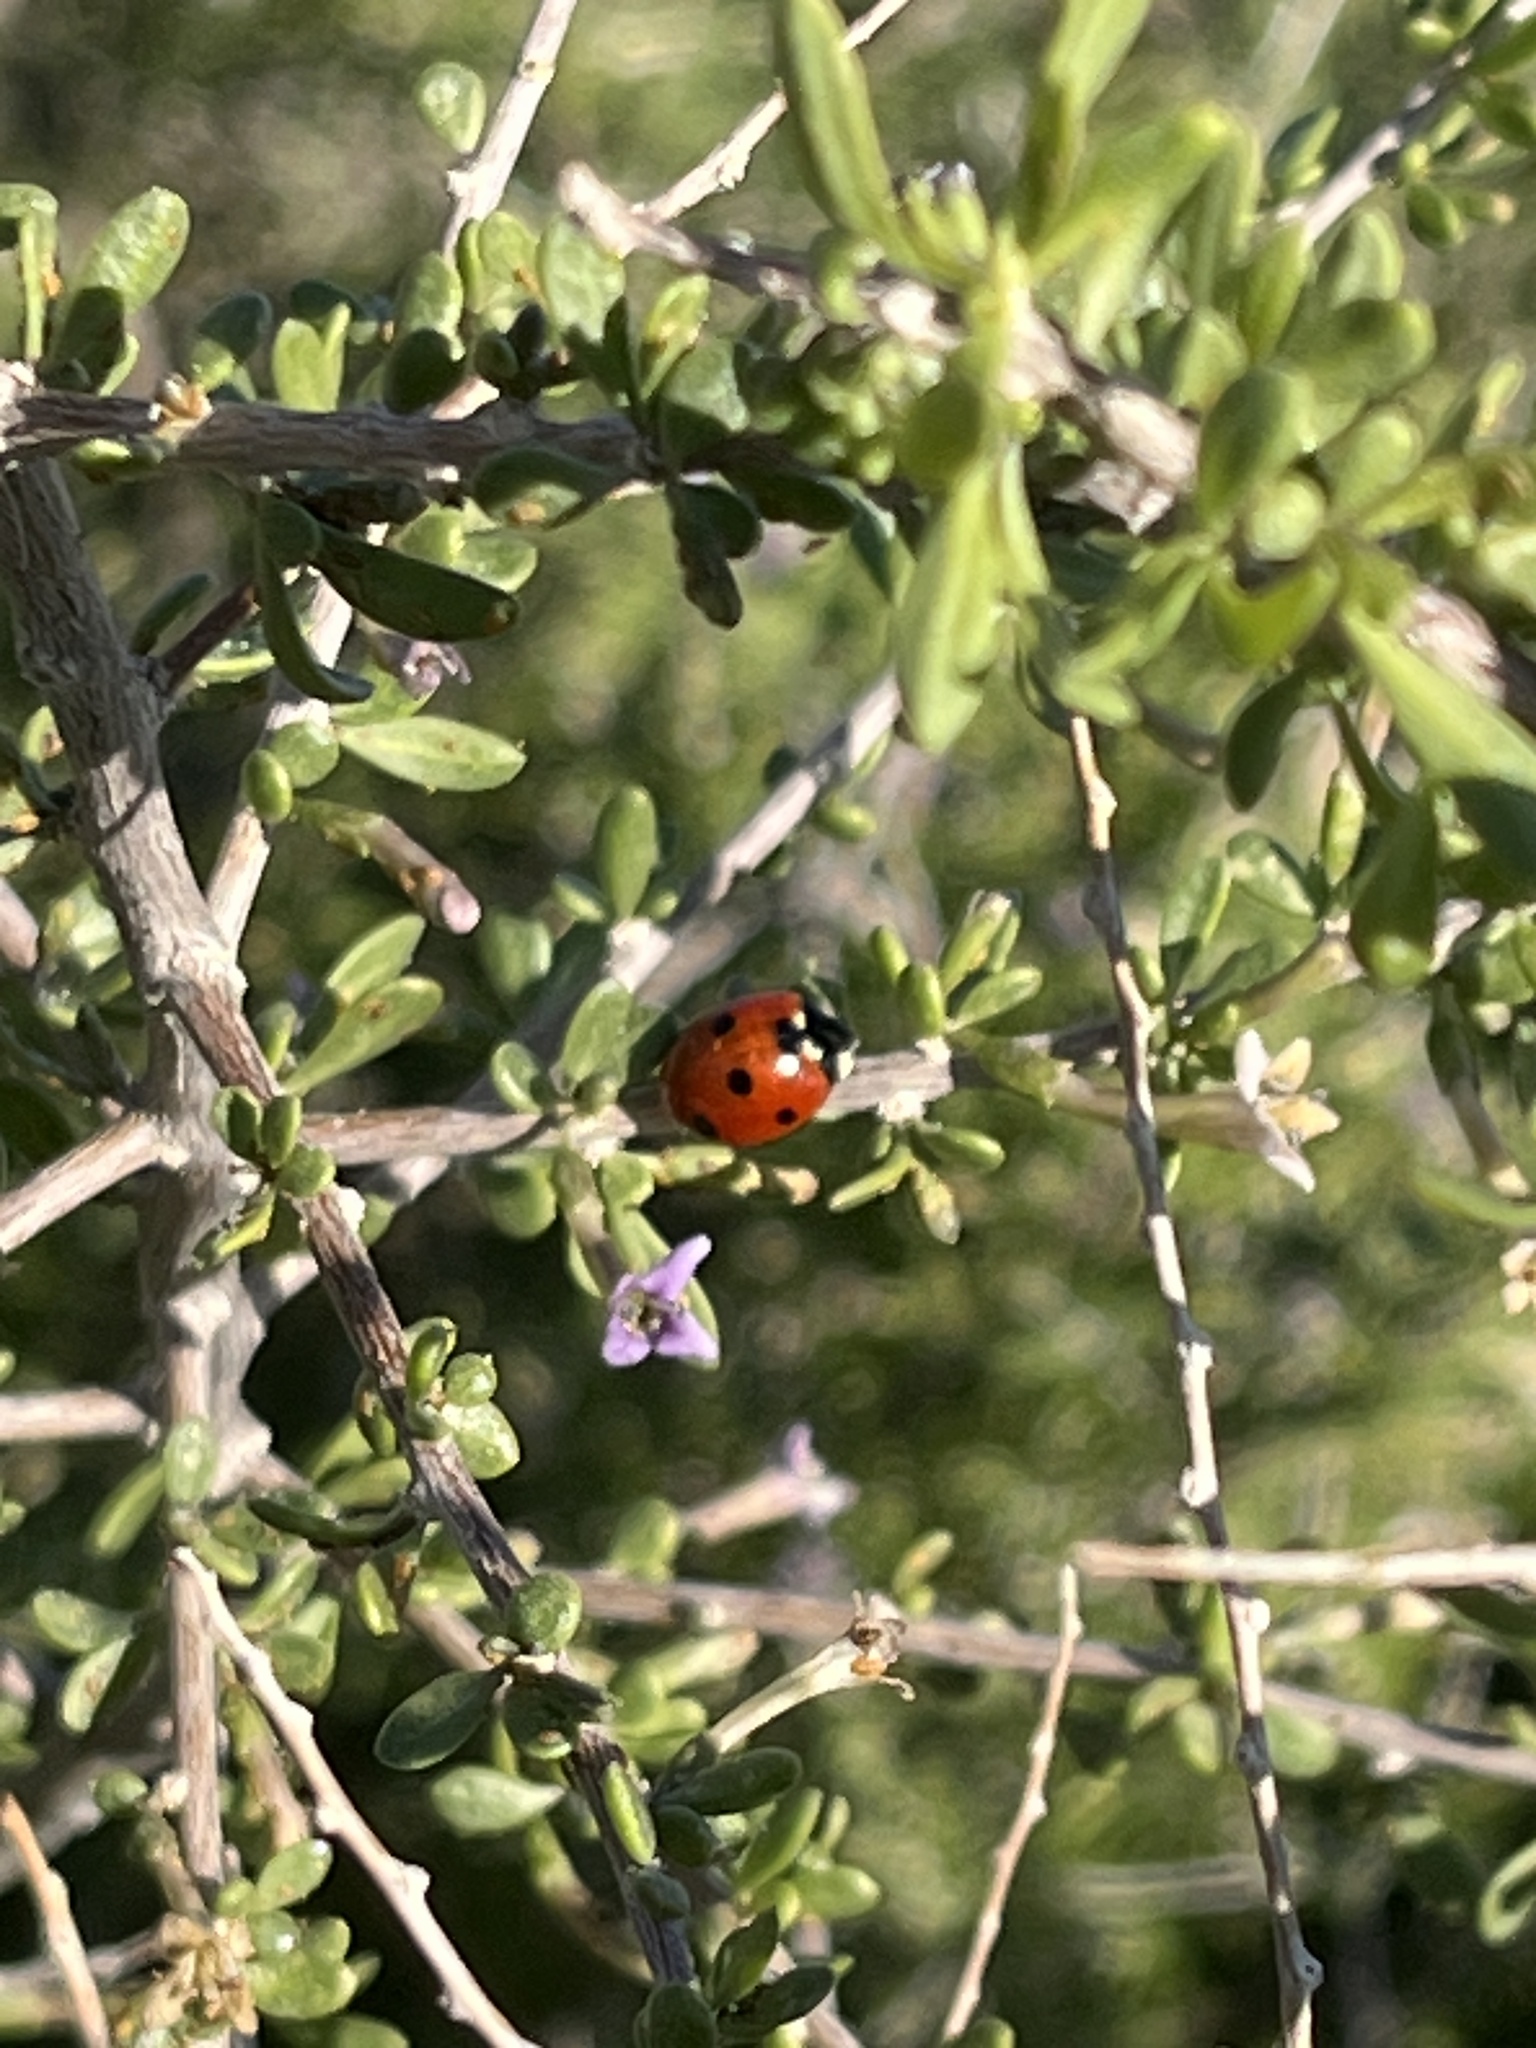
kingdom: Animalia
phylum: Arthropoda
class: Insecta
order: Coleoptera
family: Coccinellidae
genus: Coccinella
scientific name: Coccinella septempunctata
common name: Sevenspotted lady beetle
